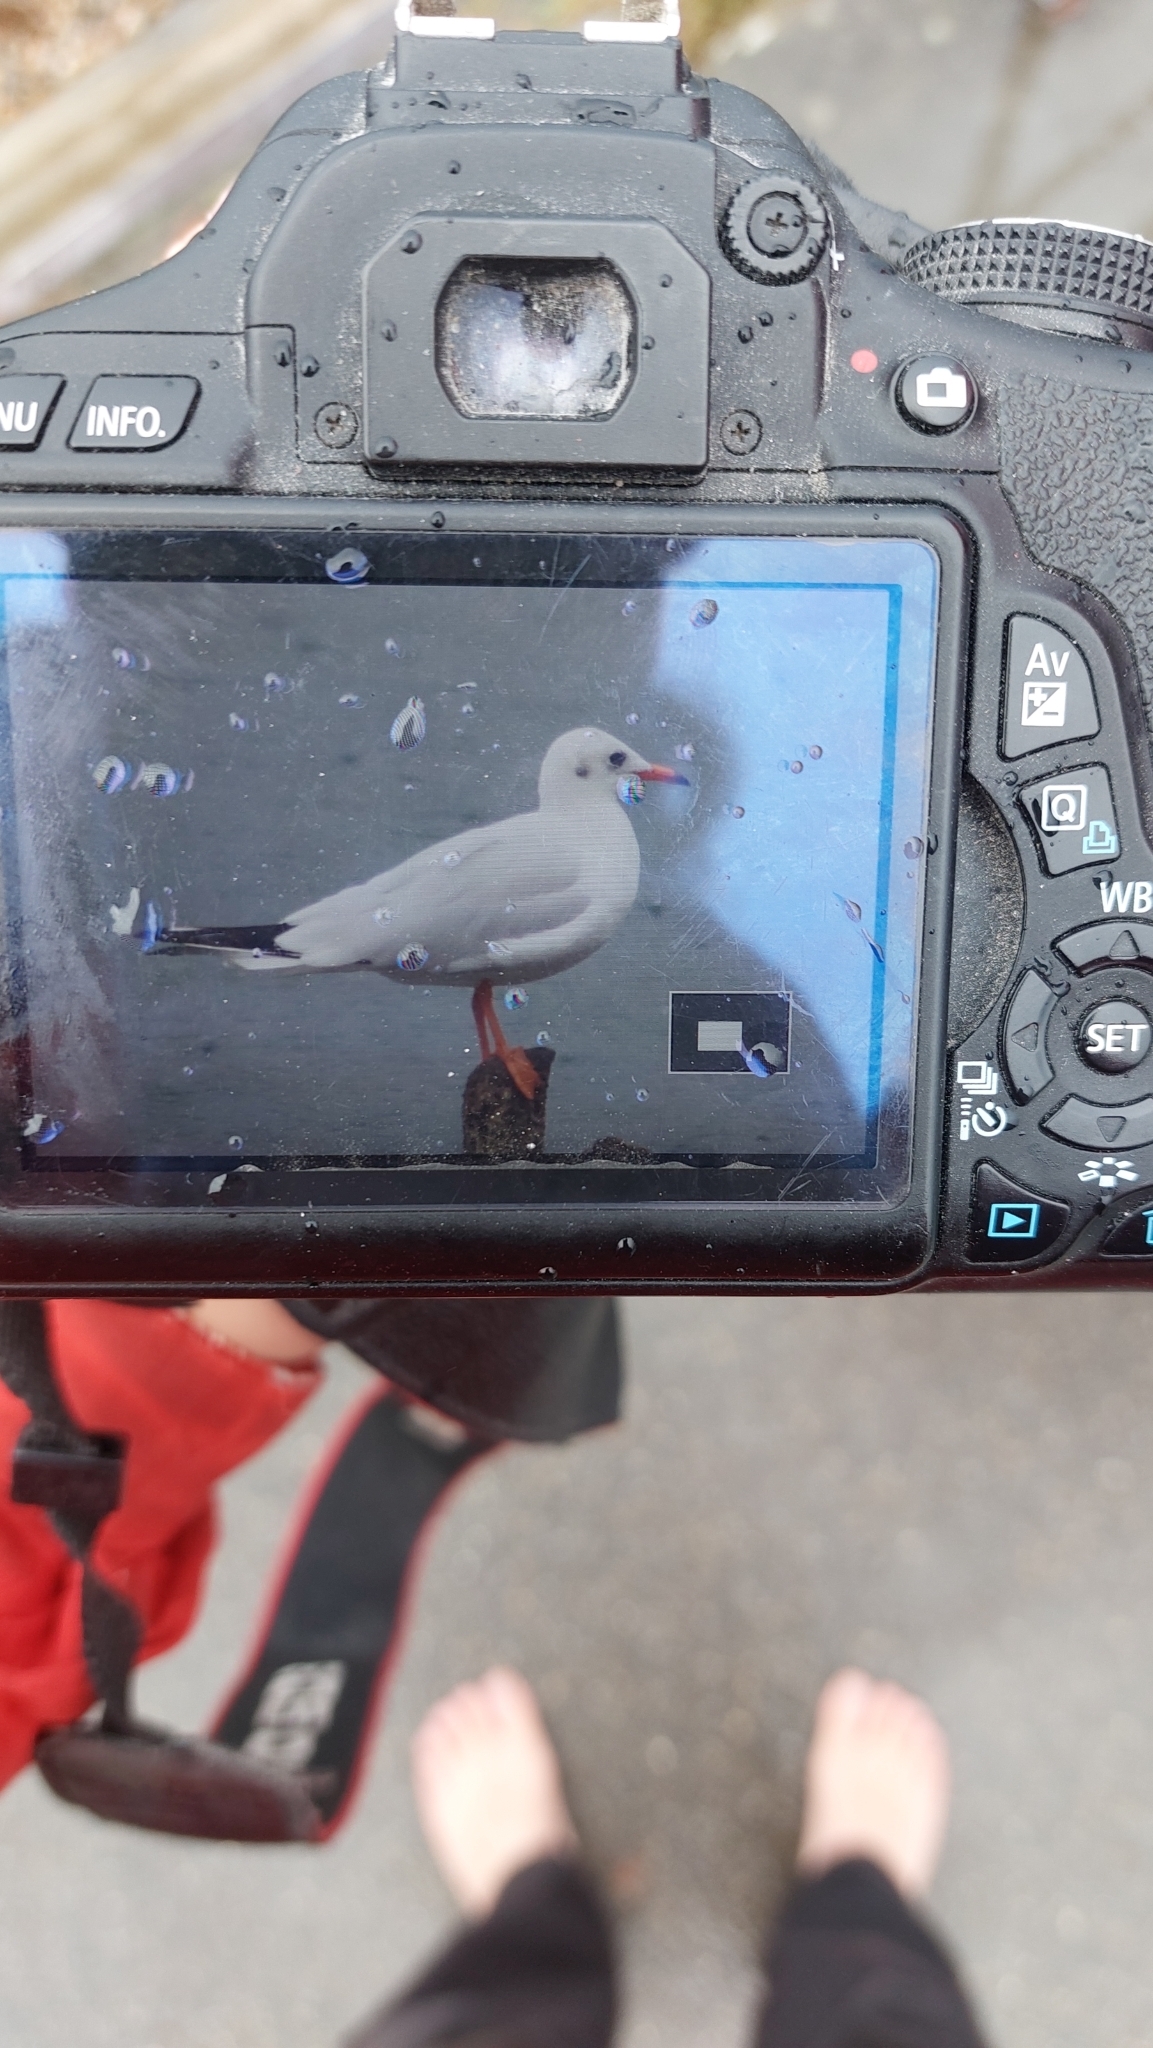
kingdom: Animalia
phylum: Chordata
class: Aves
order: Charadriiformes
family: Laridae
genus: Chroicocephalus
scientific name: Chroicocephalus ridibundus
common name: Black-headed gull
